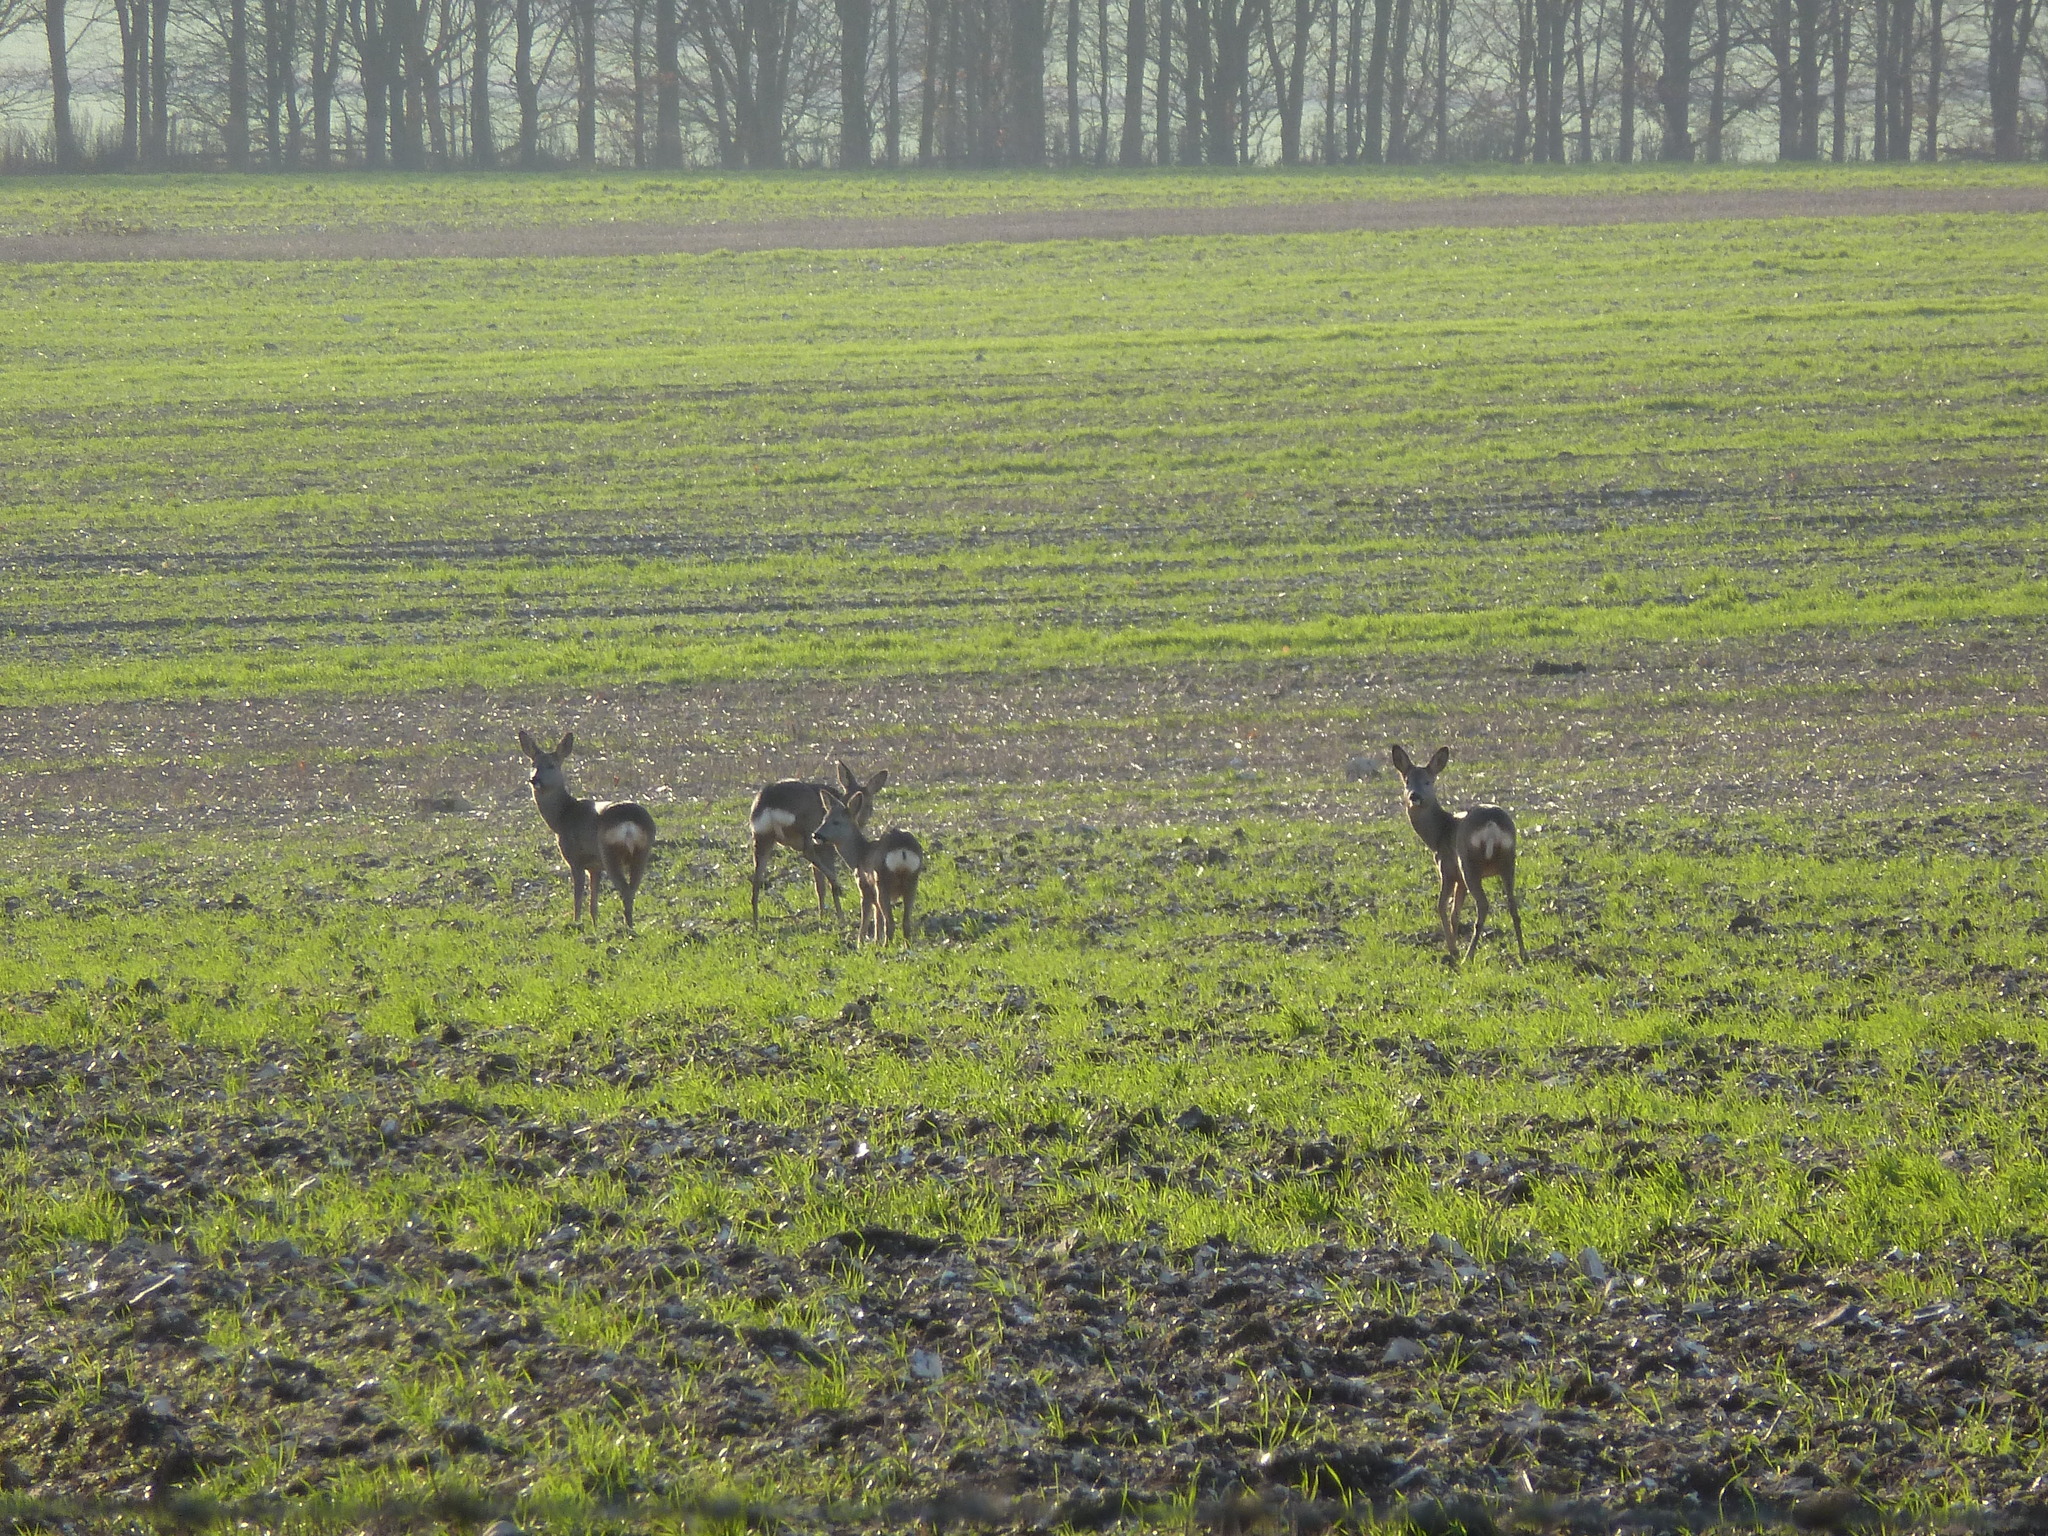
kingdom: Animalia
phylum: Chordata
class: Mammalia
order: Artiodactyla
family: Cervidae
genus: Capreolus
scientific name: Capreolus capreolus
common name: Western roe deer
